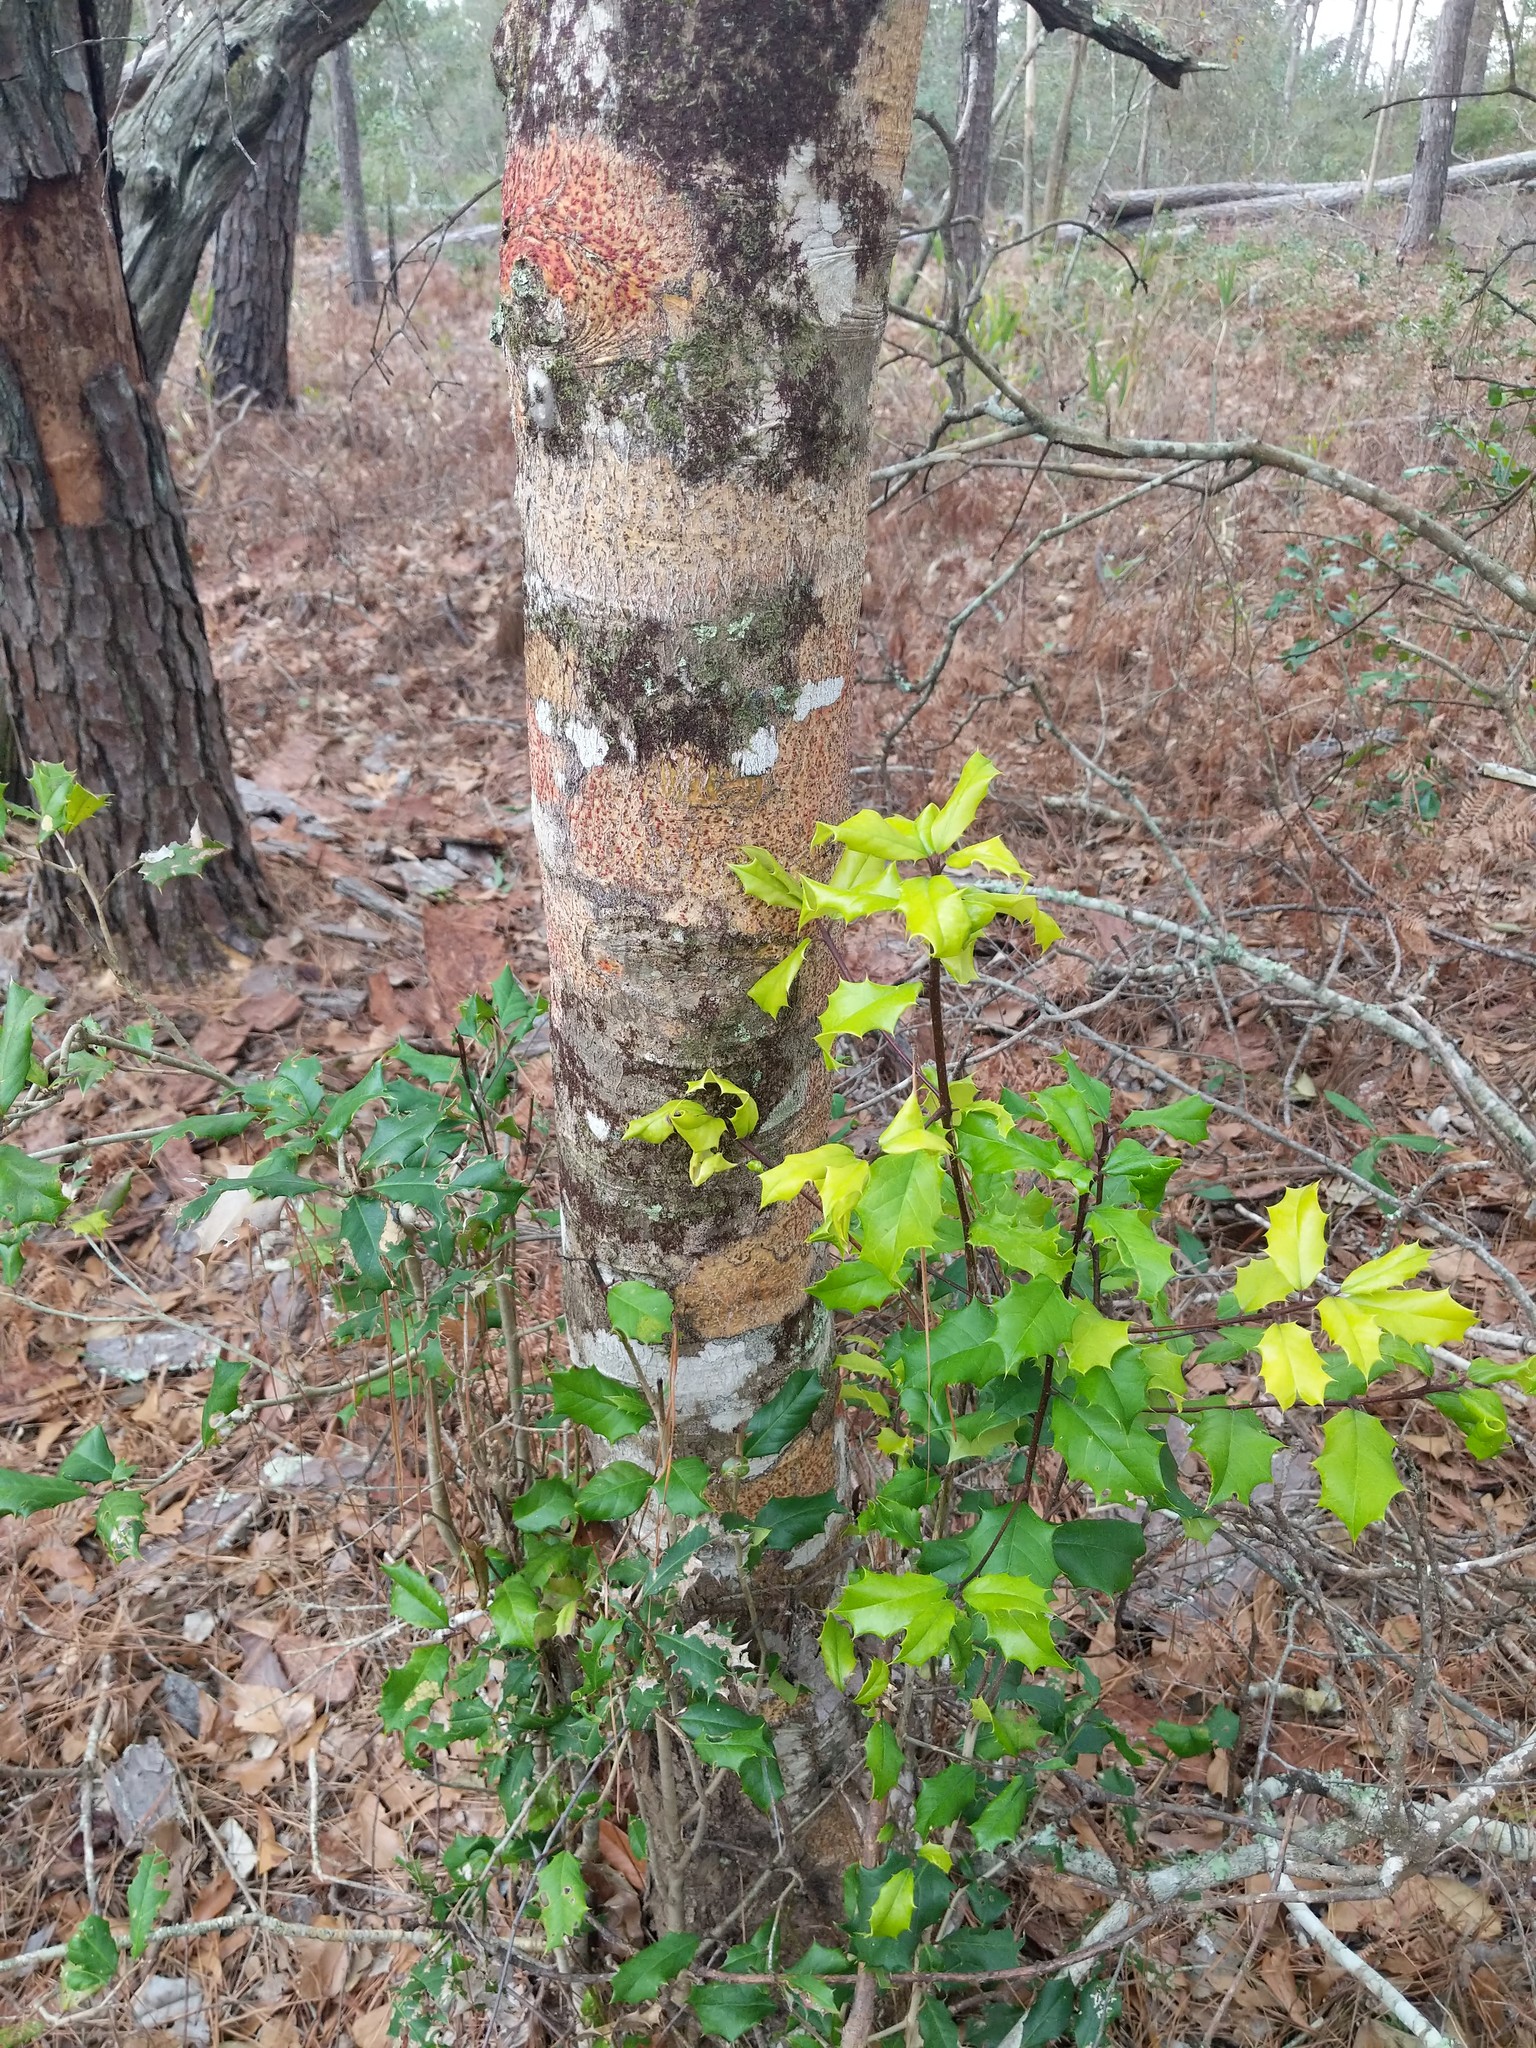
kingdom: Plantae
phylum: Tracheophyta
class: Magnoliopsida
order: Aquifoliales
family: Aquifoliaceae
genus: Ilex
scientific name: Ilex opaca
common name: American holly
